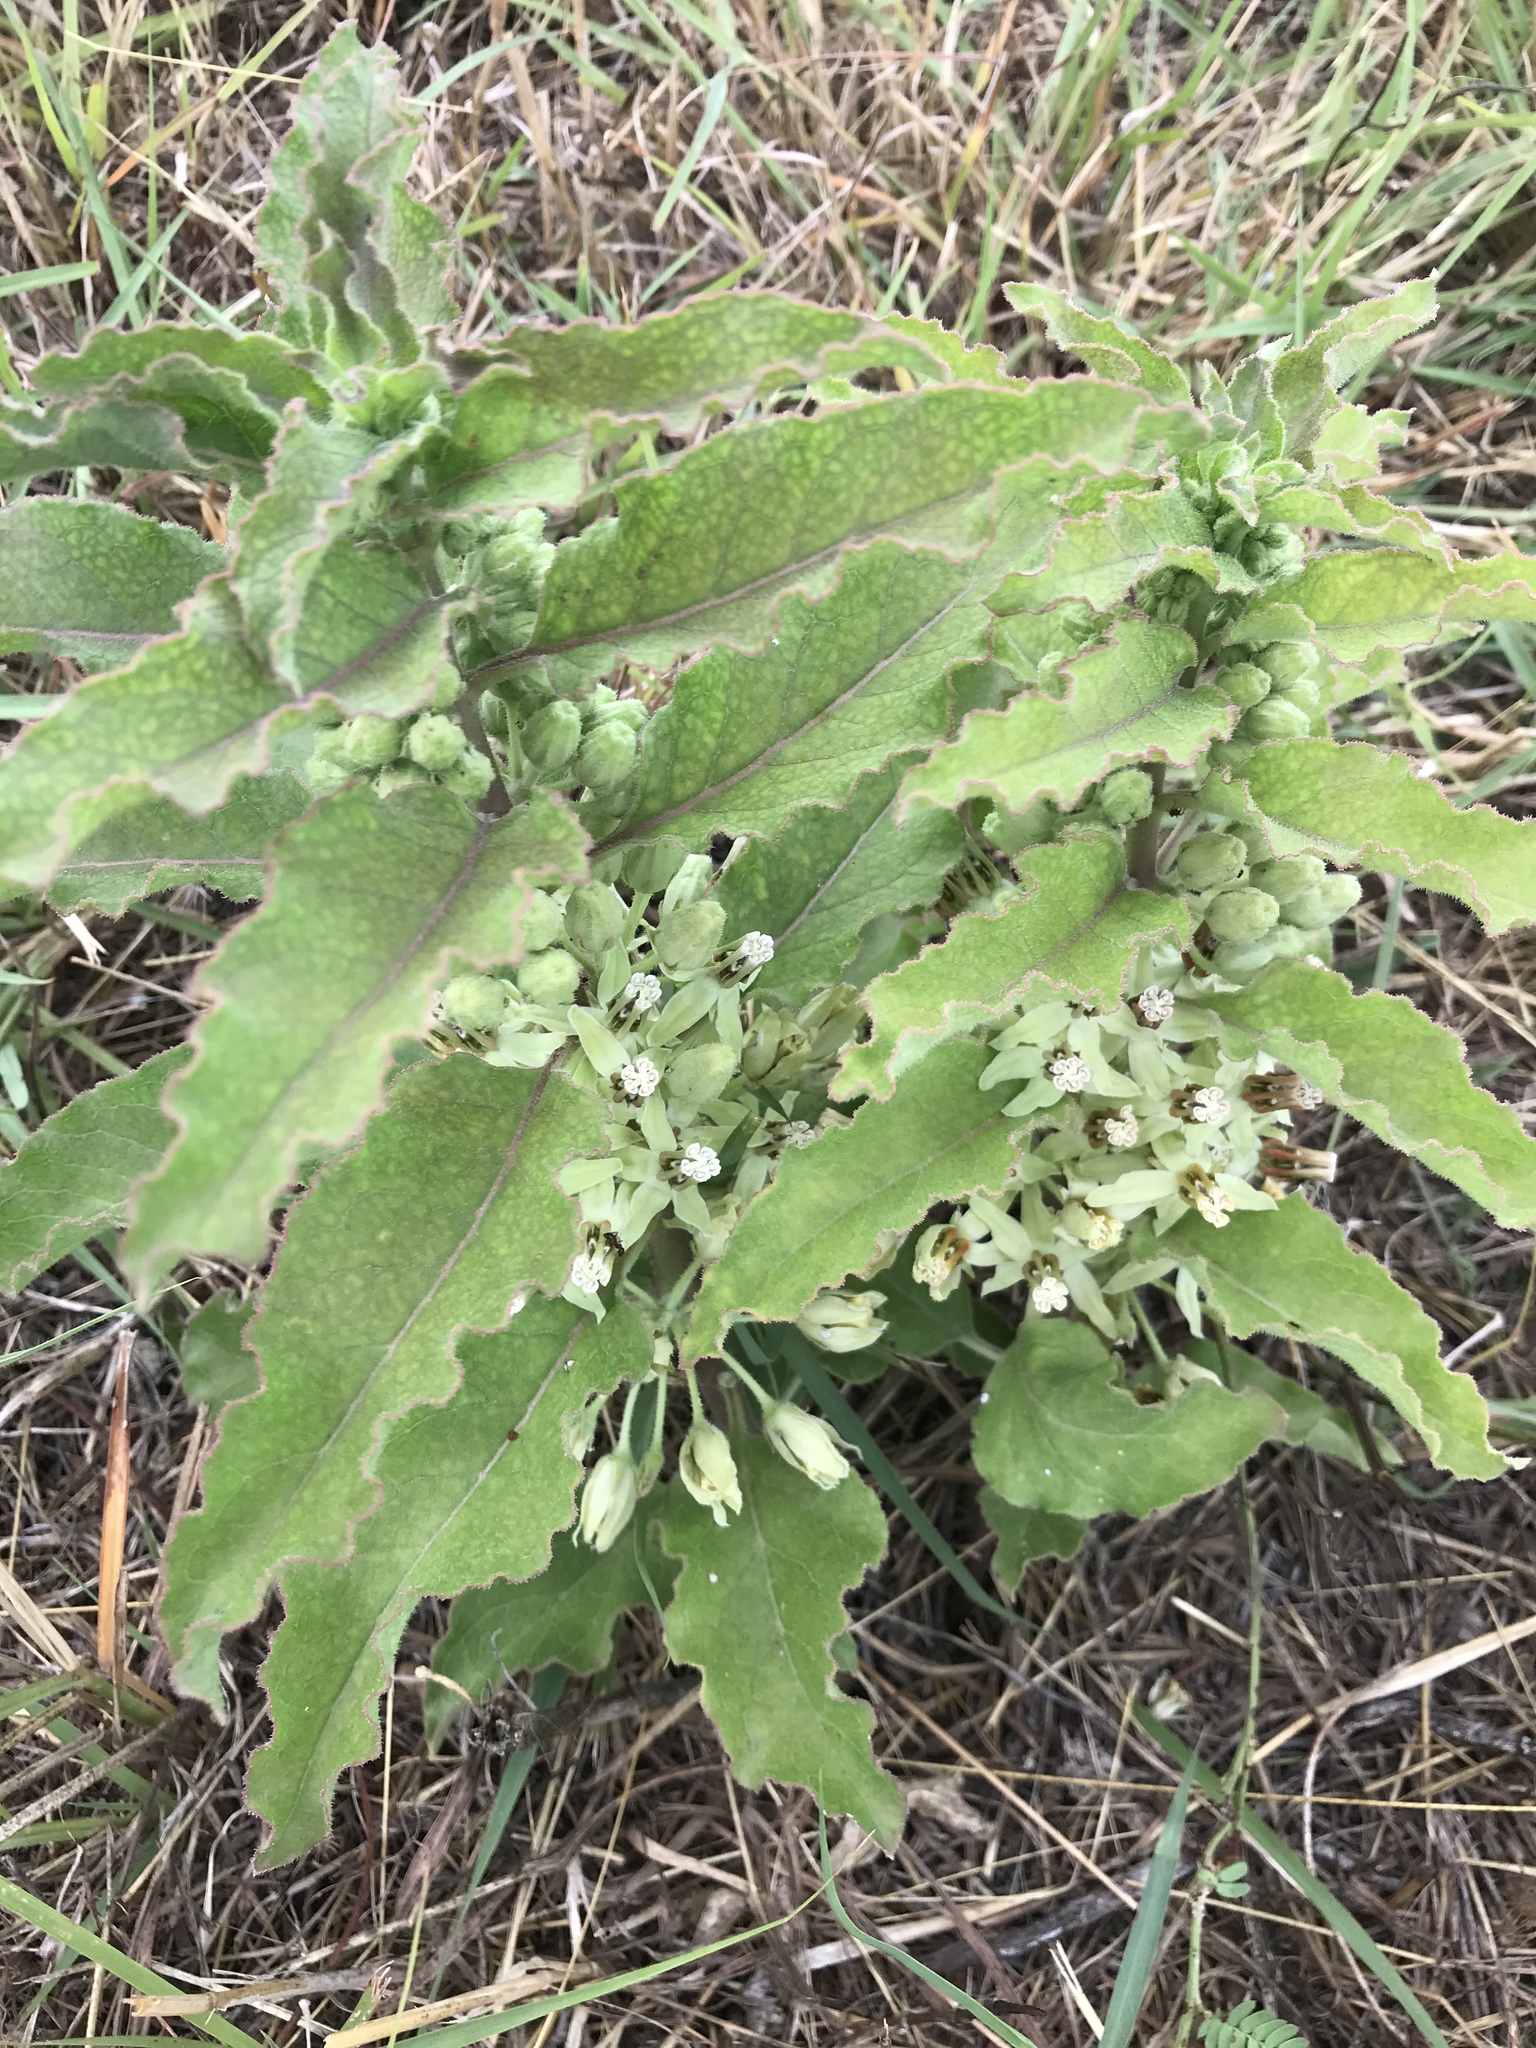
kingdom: Plantae
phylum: Tracheophyta
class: Magnoliopsida
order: Gentianales
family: Apocynaceae
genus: Asclepias
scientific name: Asclepias oenotheroides
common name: Zizotes milkweed
